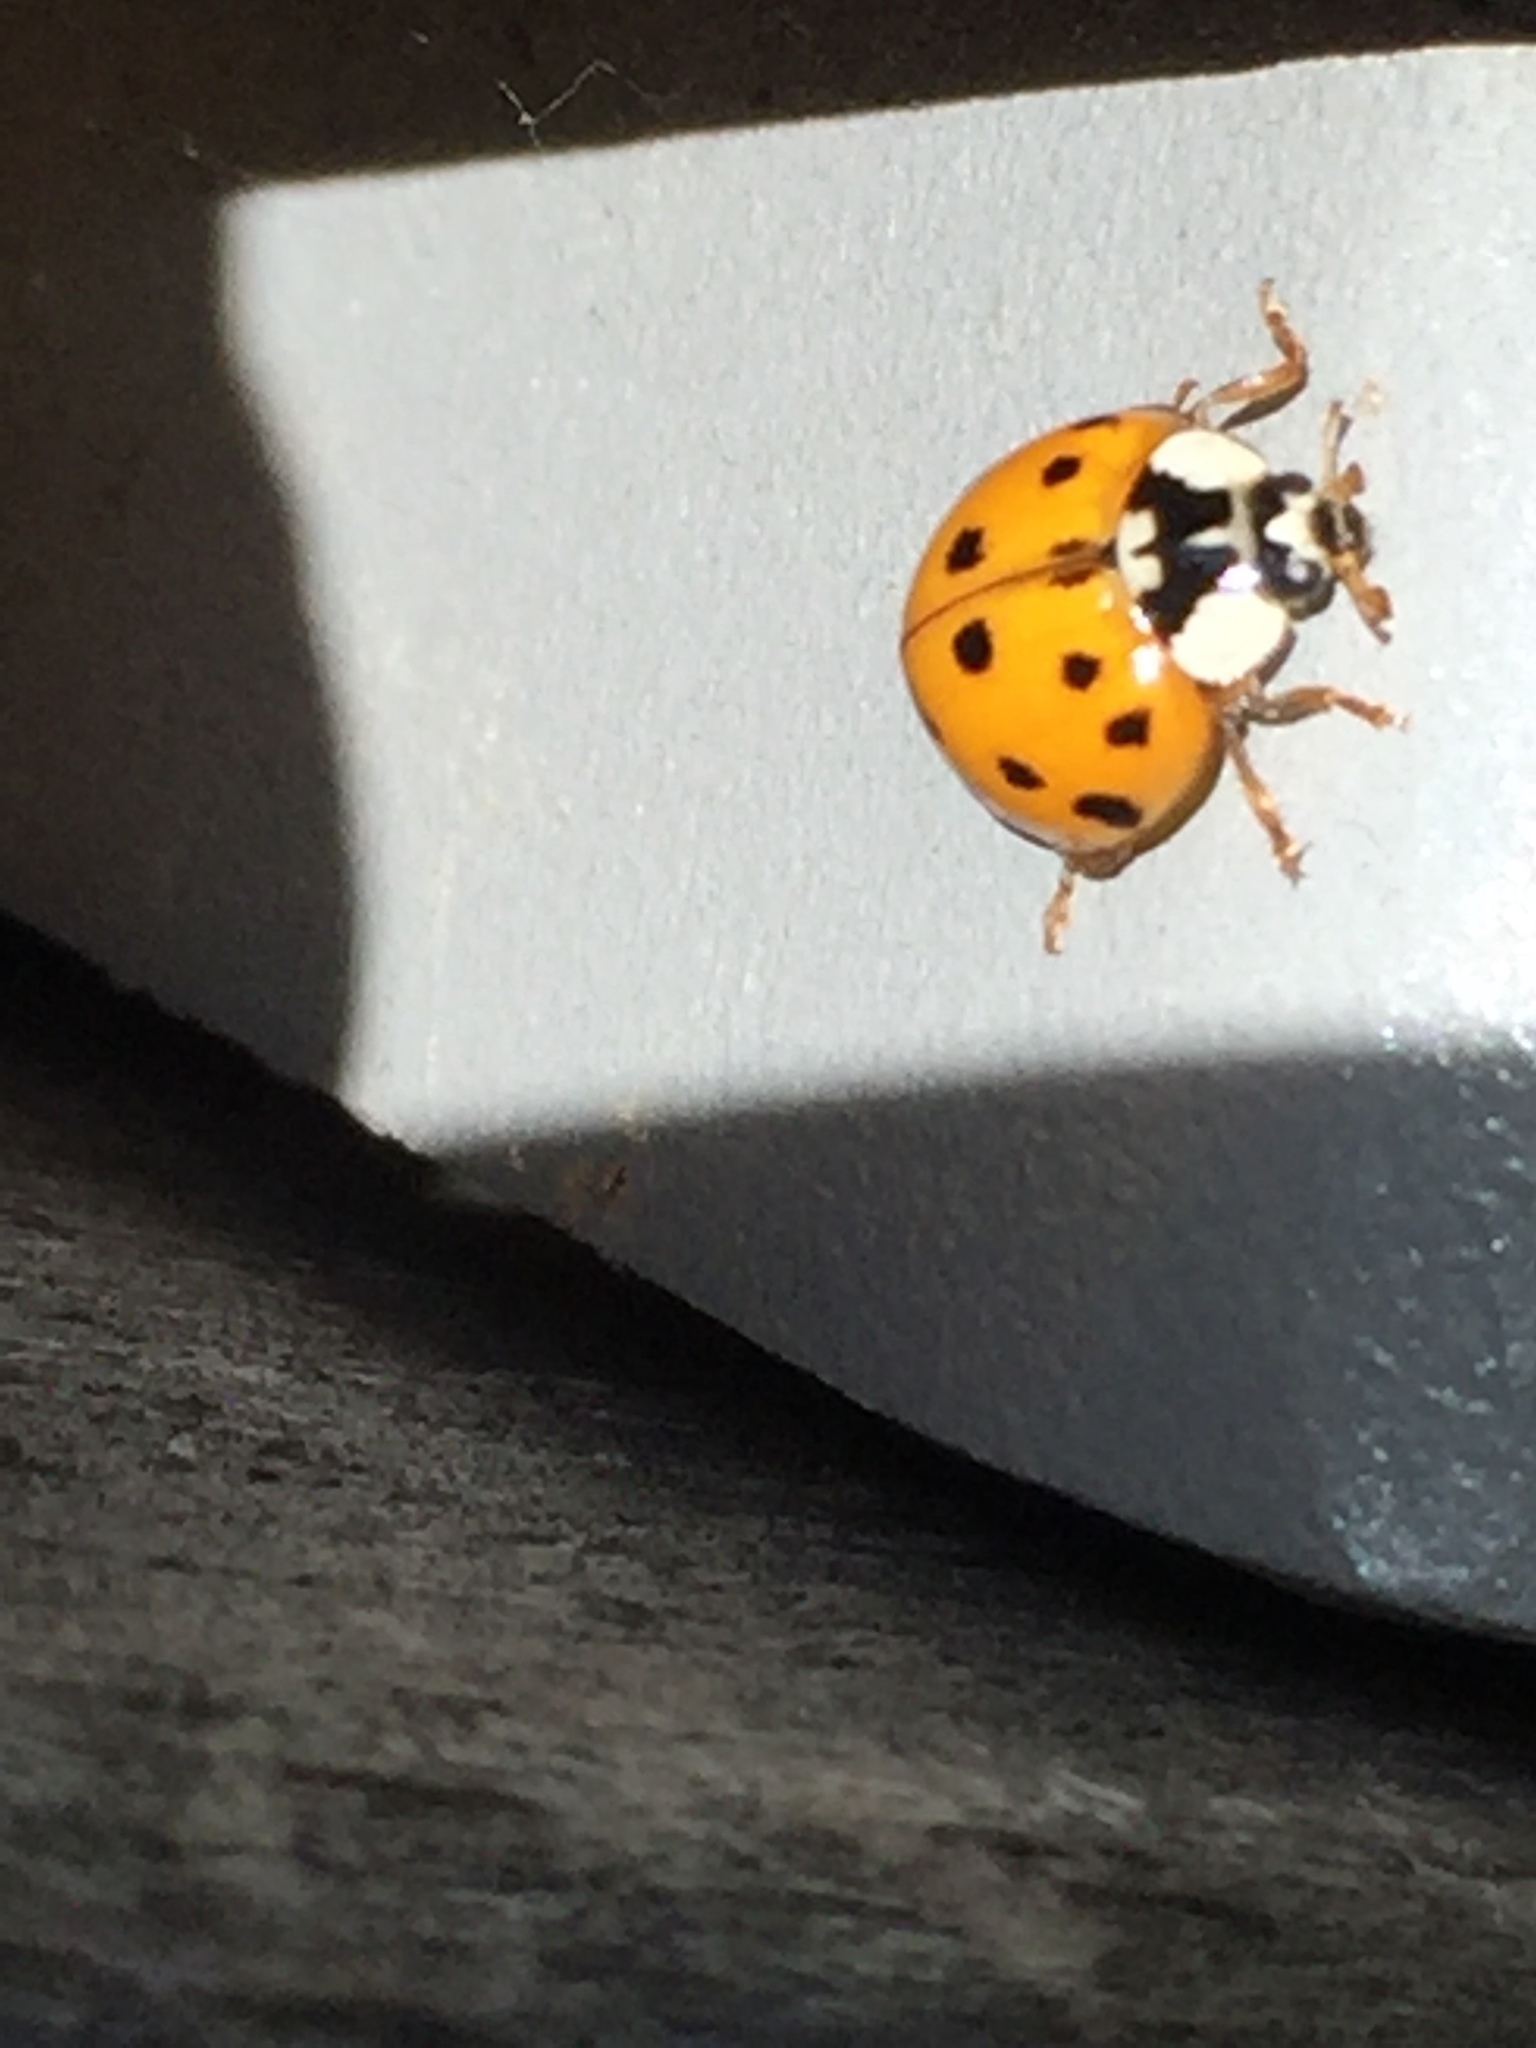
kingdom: Animalia
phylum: Arthropoda
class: Insecta
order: Coleoptera
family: Coccinellidae
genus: Harmonia
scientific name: Harmonia axyridis
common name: Harlequin ladybird
